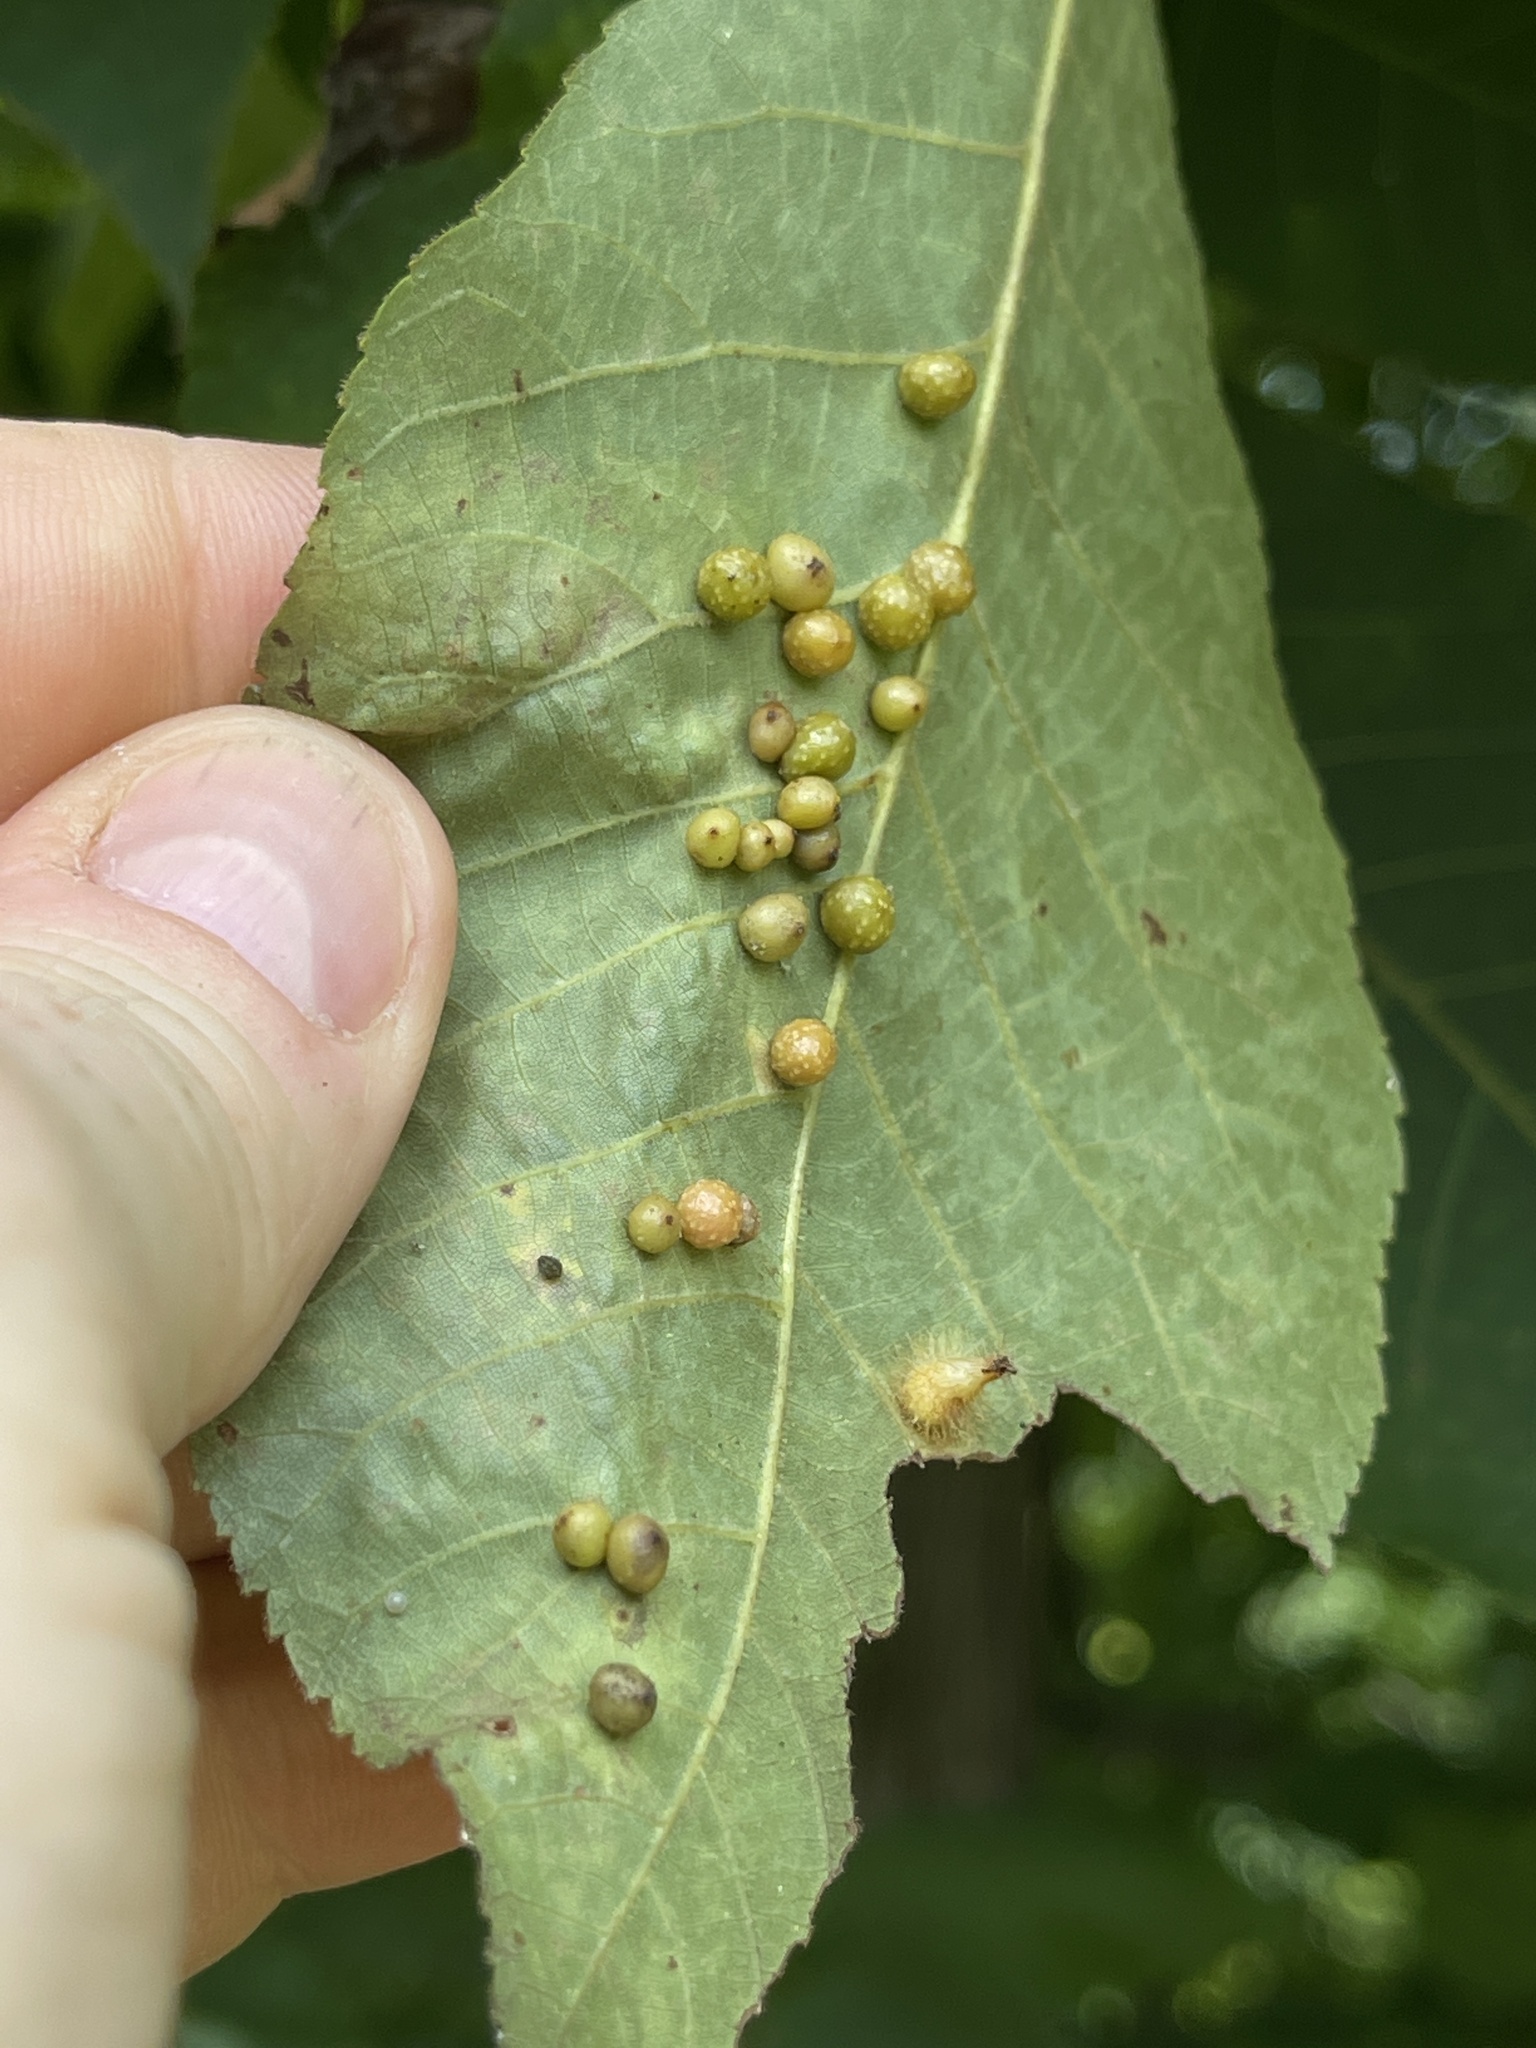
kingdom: Animalia
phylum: Arthropoda
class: Insecta
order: Diptera
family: Cecidomyiidae
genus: Caryomyia
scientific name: Caryomyia tuberculata
